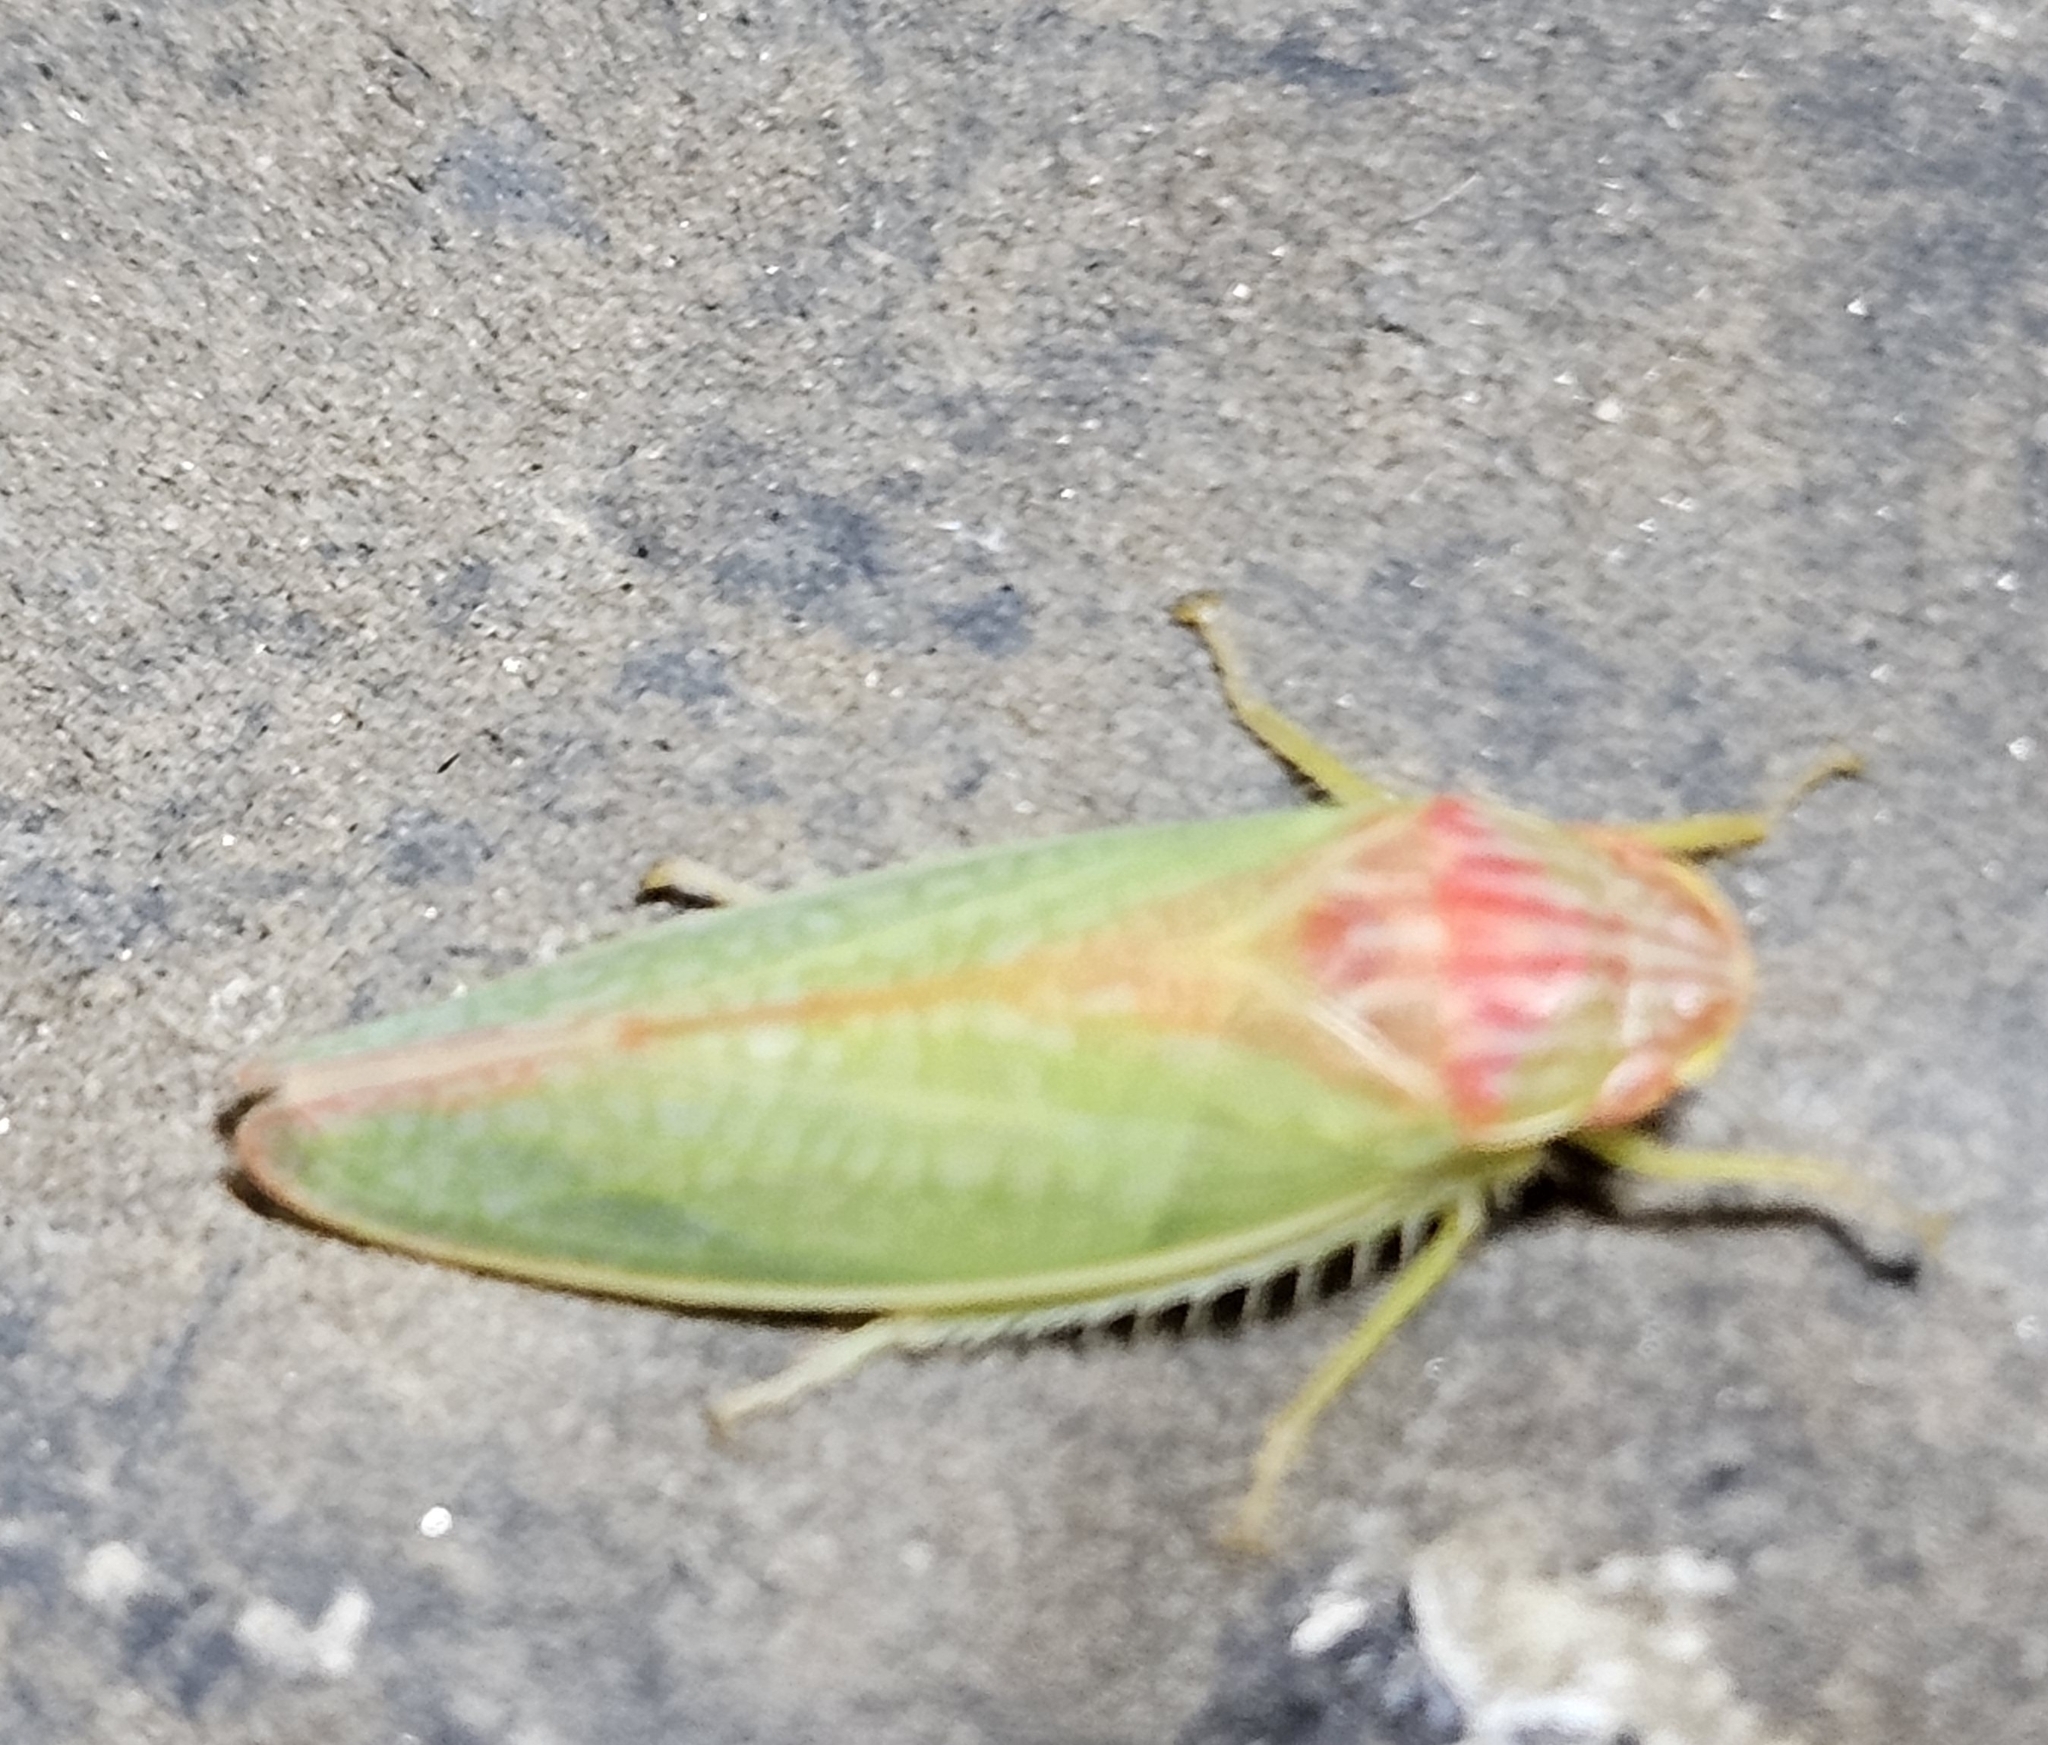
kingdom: Animalia
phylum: Arthropoda
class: Insecta
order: Hemiptera
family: Cicadellidae
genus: Gyponana
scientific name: Gyponana octolineata
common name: Eight-lined leafhopper
